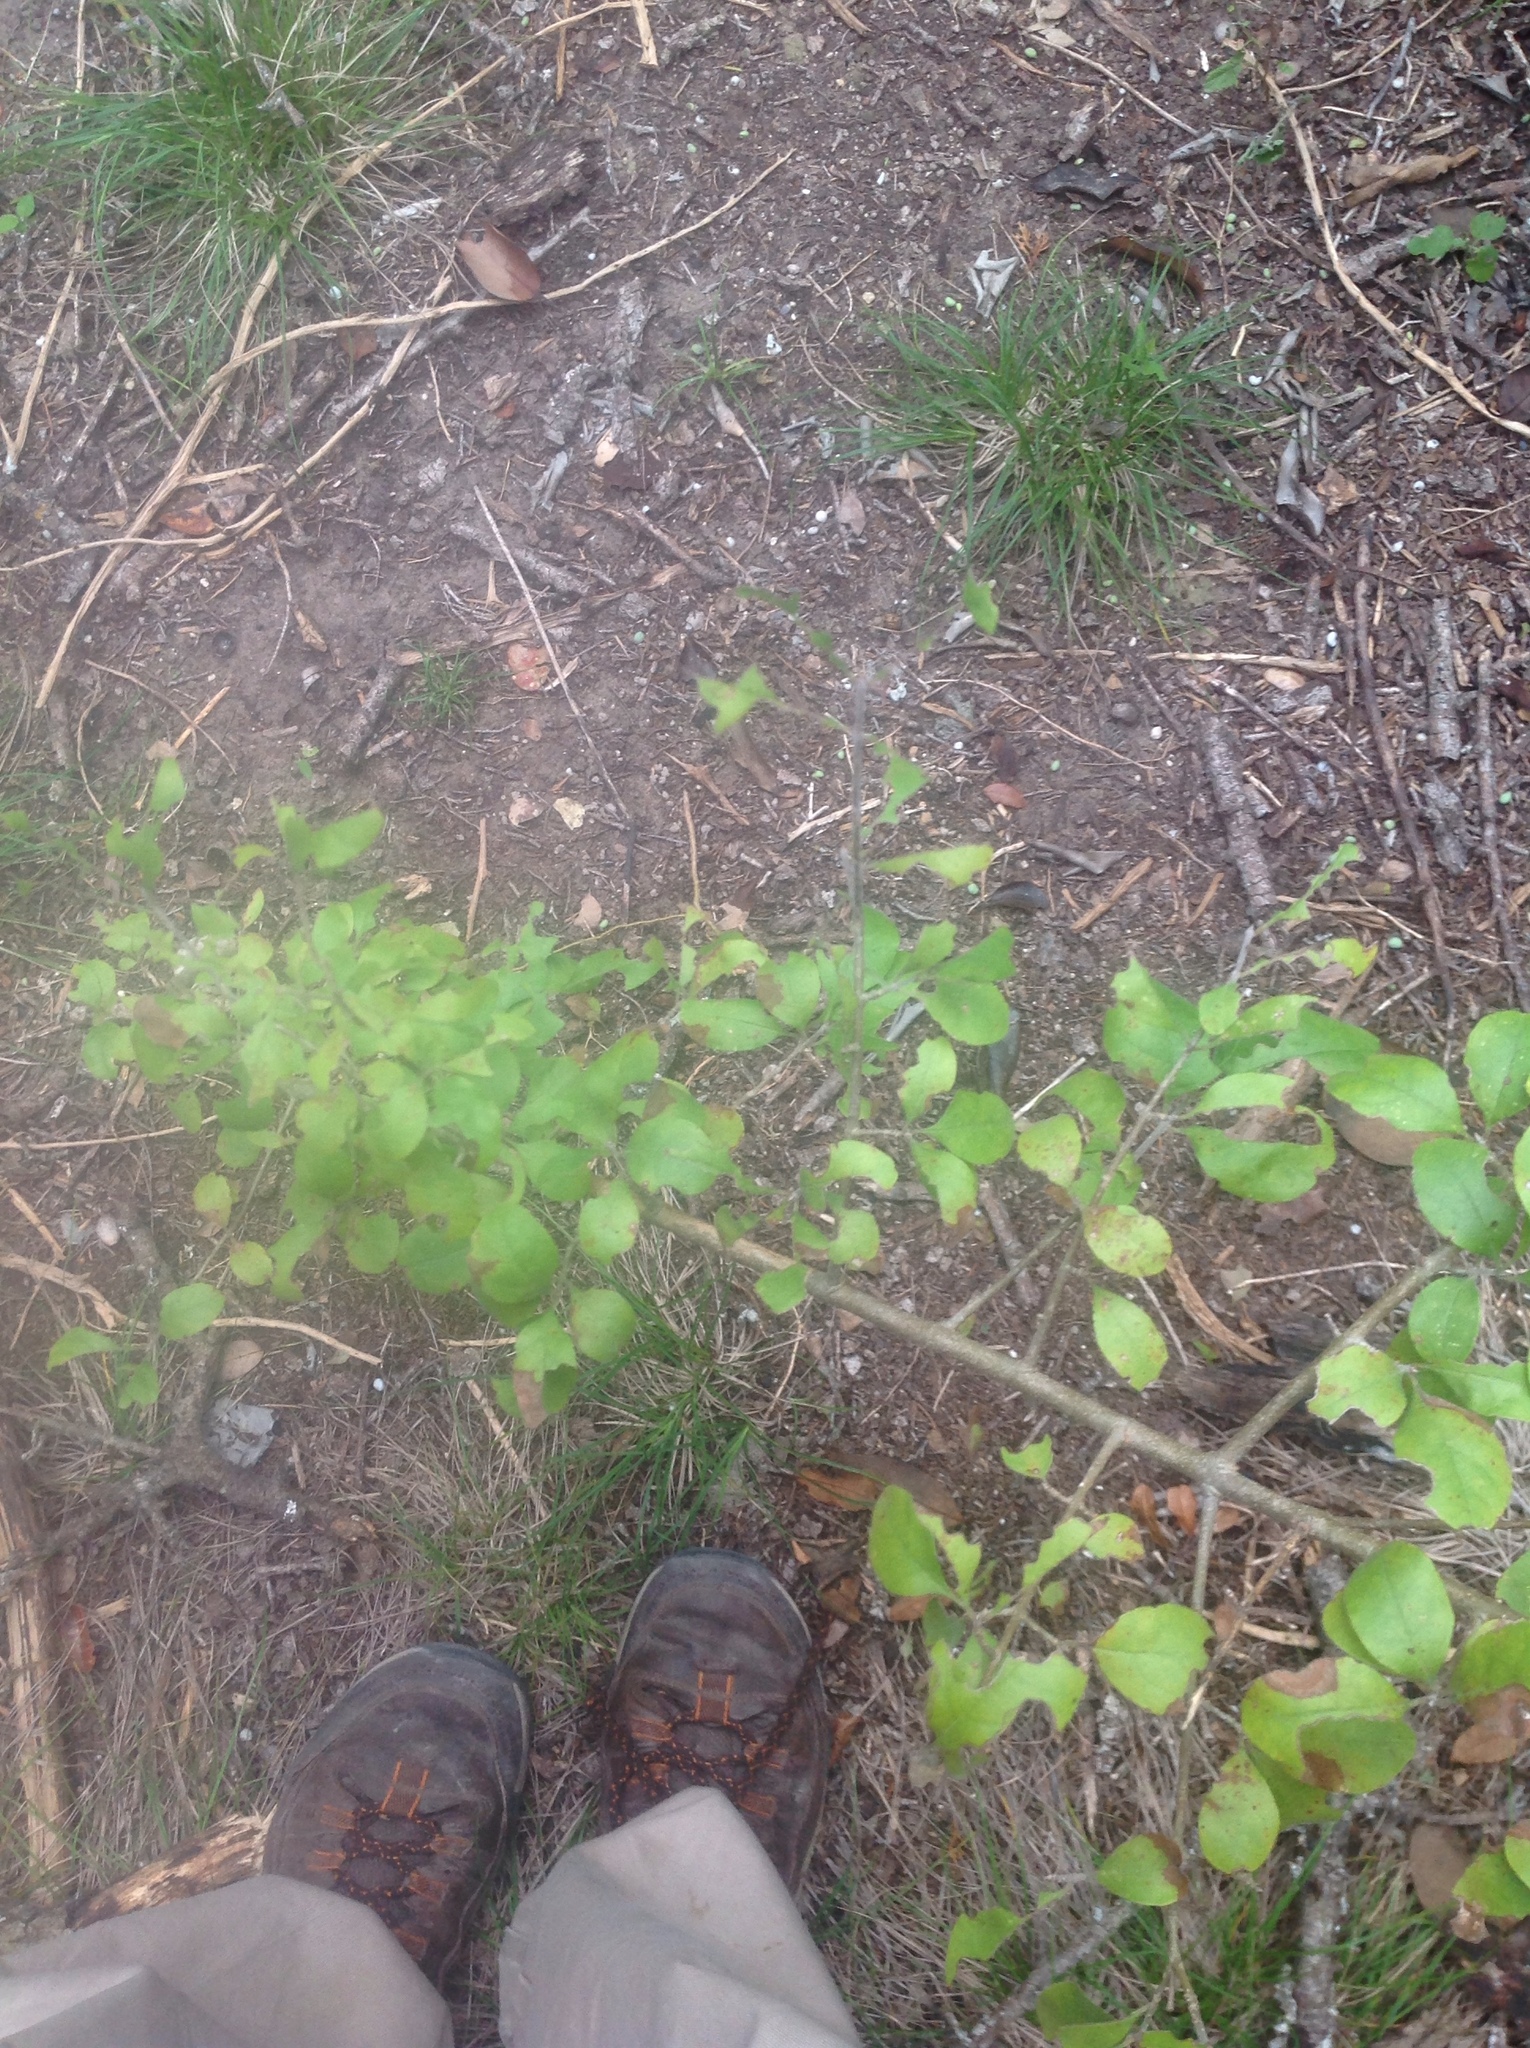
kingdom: Plantae
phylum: Tracheophyta
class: Magnoliopsida
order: Lamiales
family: Oleaceae
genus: Forestiera
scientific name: Forestiera pubescens
